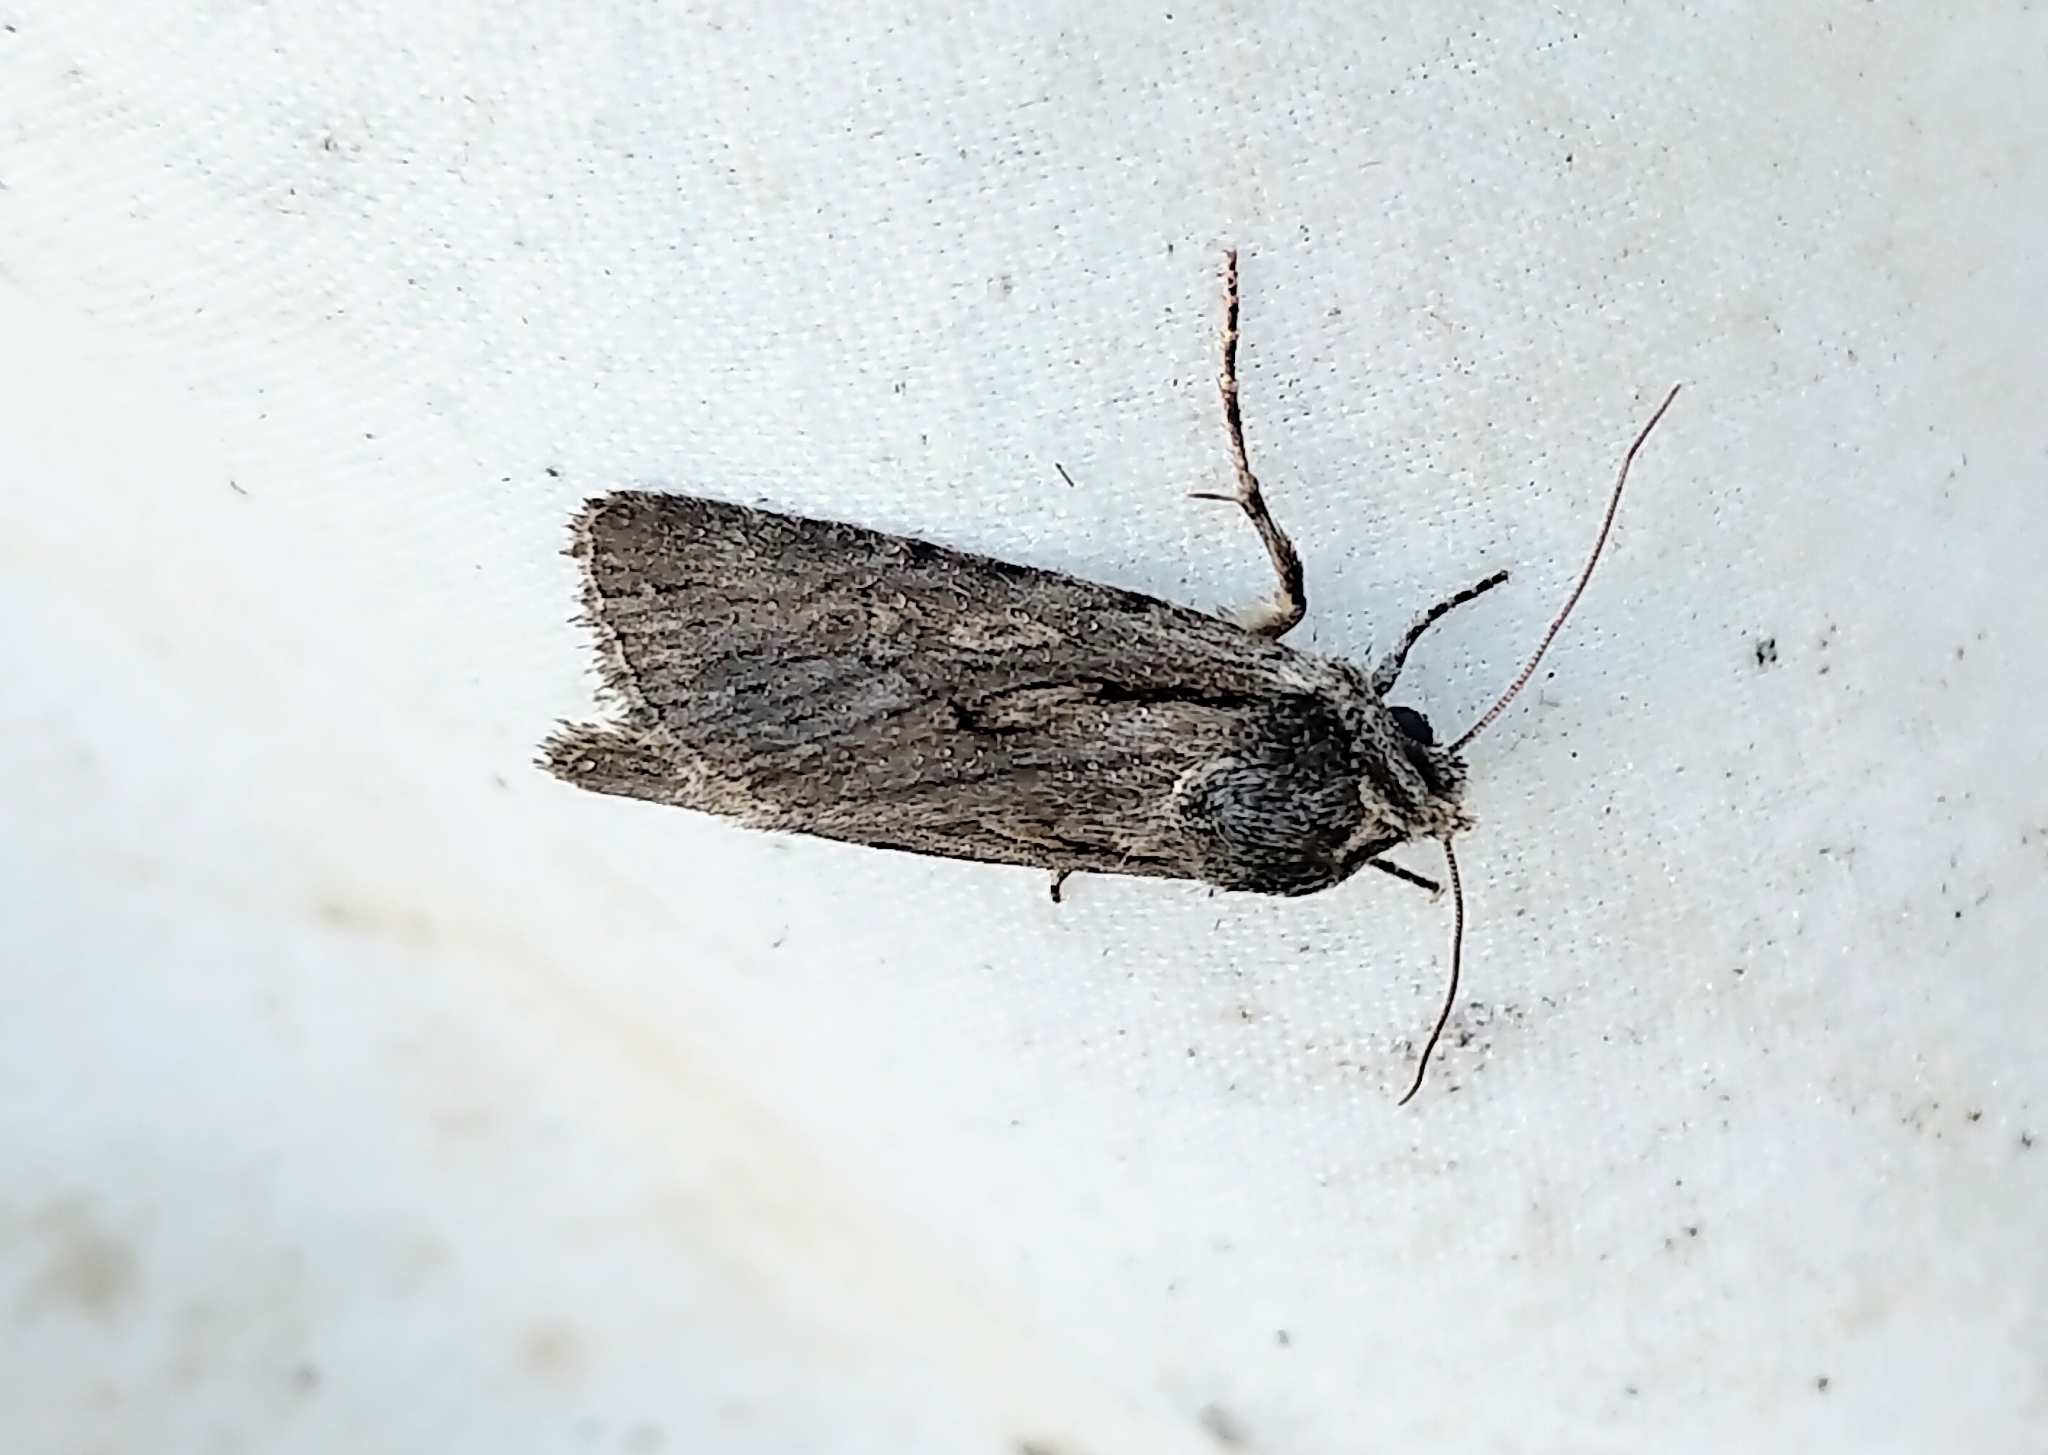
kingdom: Animalia
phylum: Arthropoda
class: Insecta
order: Lepidoptera
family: Noctuidae
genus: Sympistis
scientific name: Sympistis mackiei
